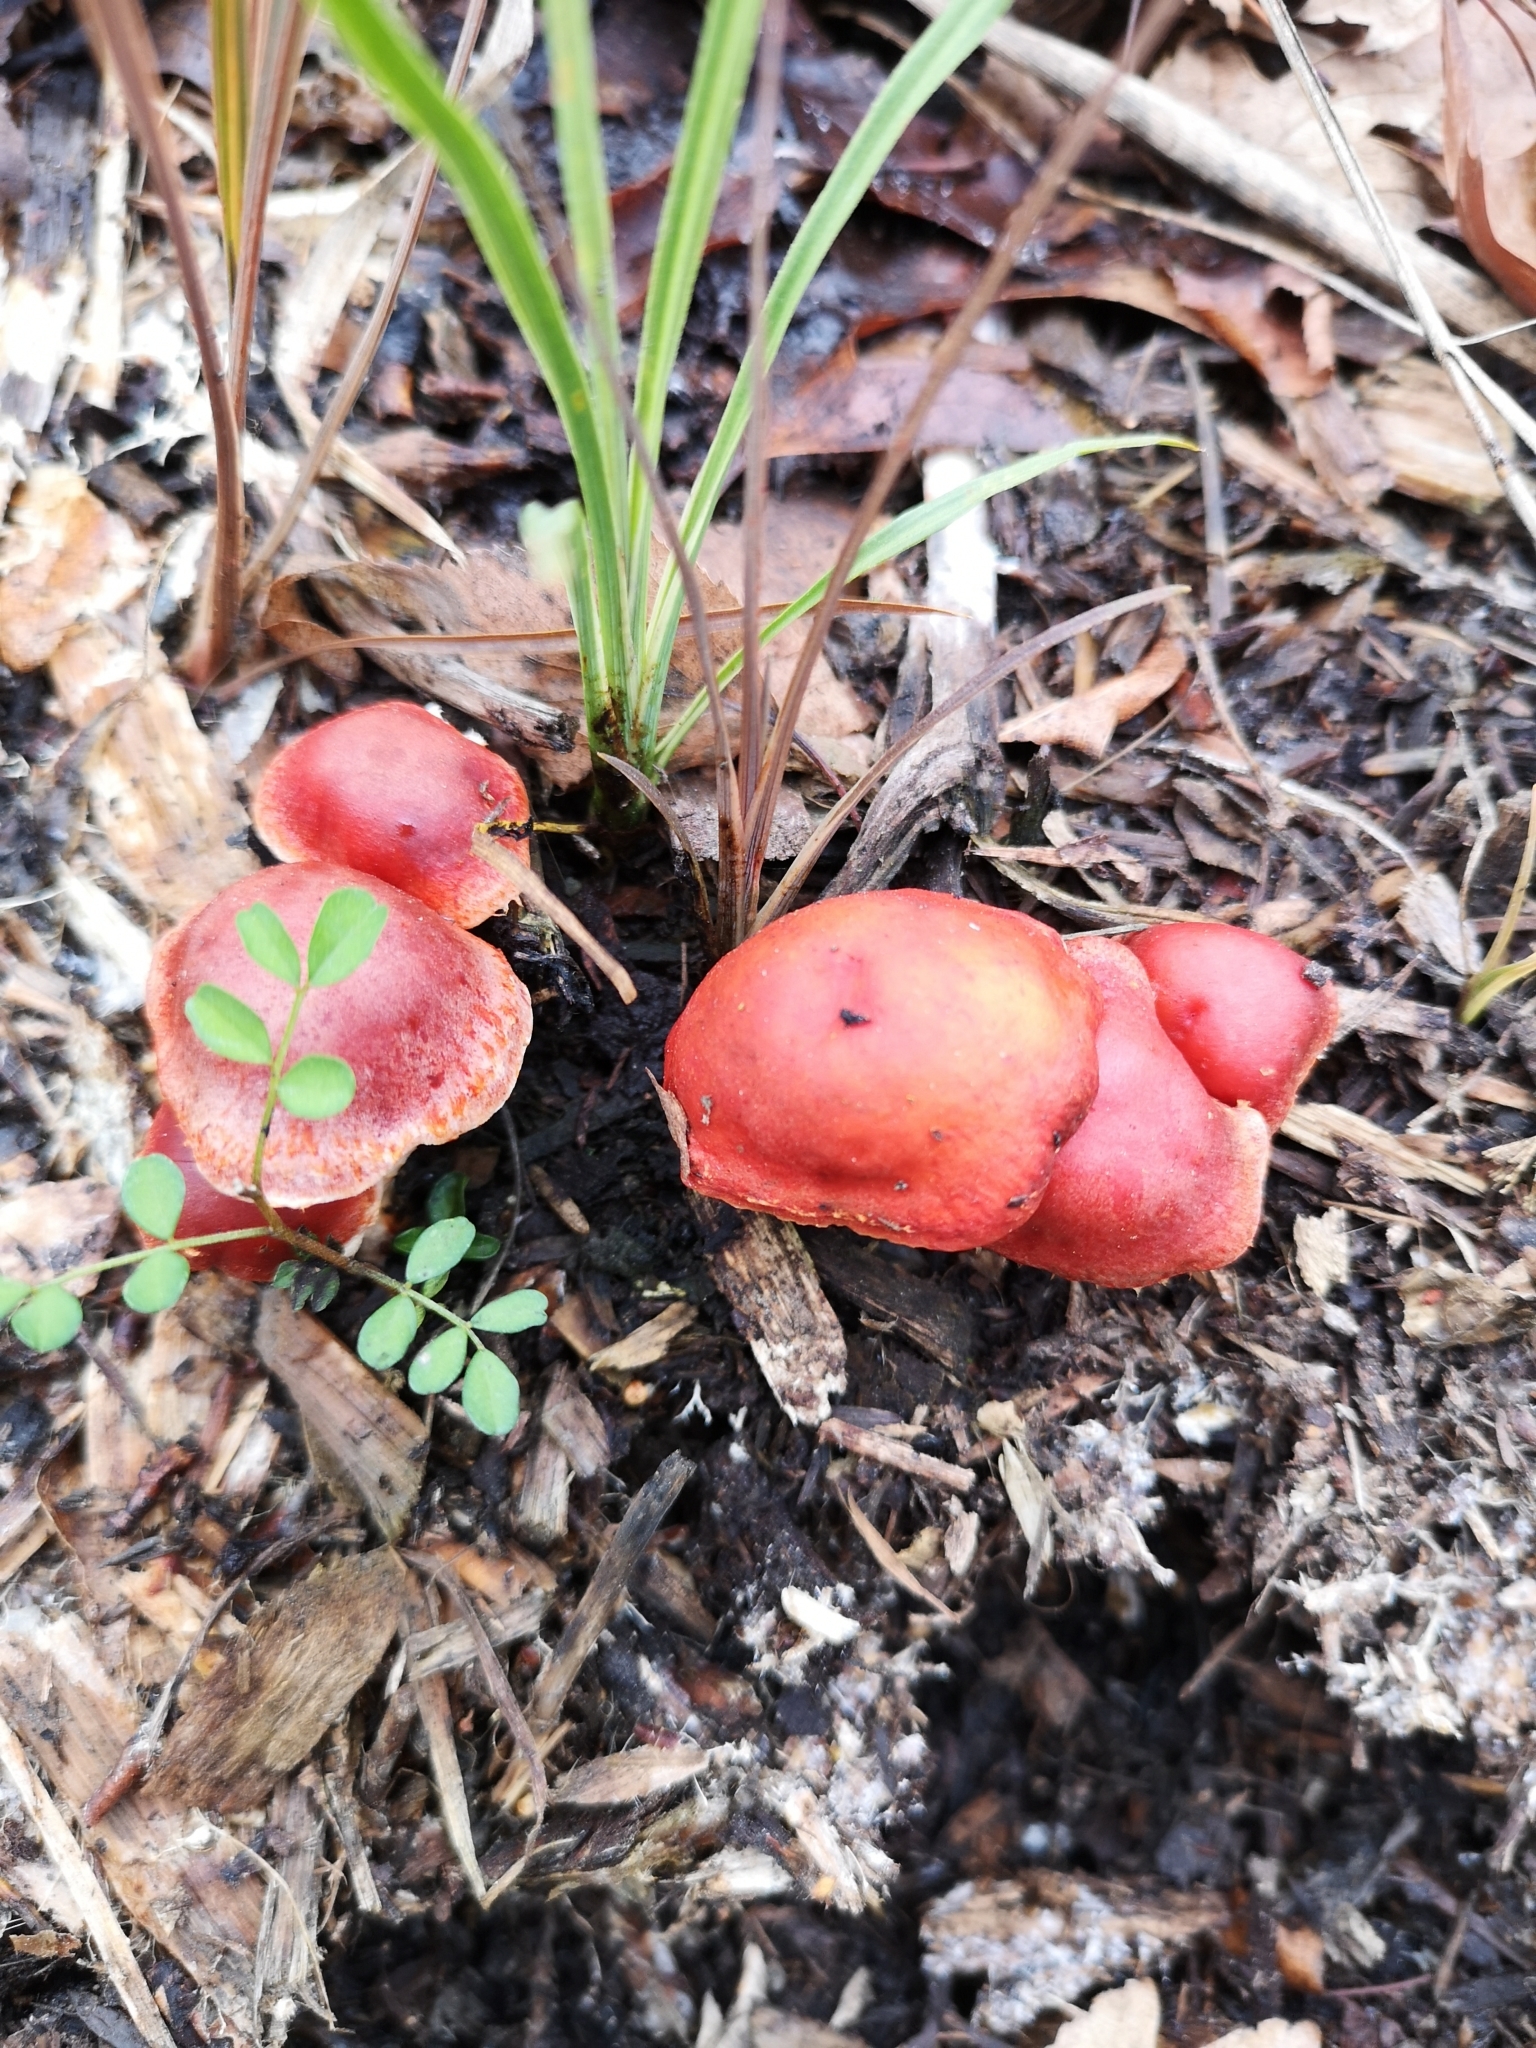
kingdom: Fungi
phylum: Basidiomycota
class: Agaricomycetes
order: Agaricales
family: Strophariaceae
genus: Leratiomyces
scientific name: Leratiomyces ceres
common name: Redlead roundhead
